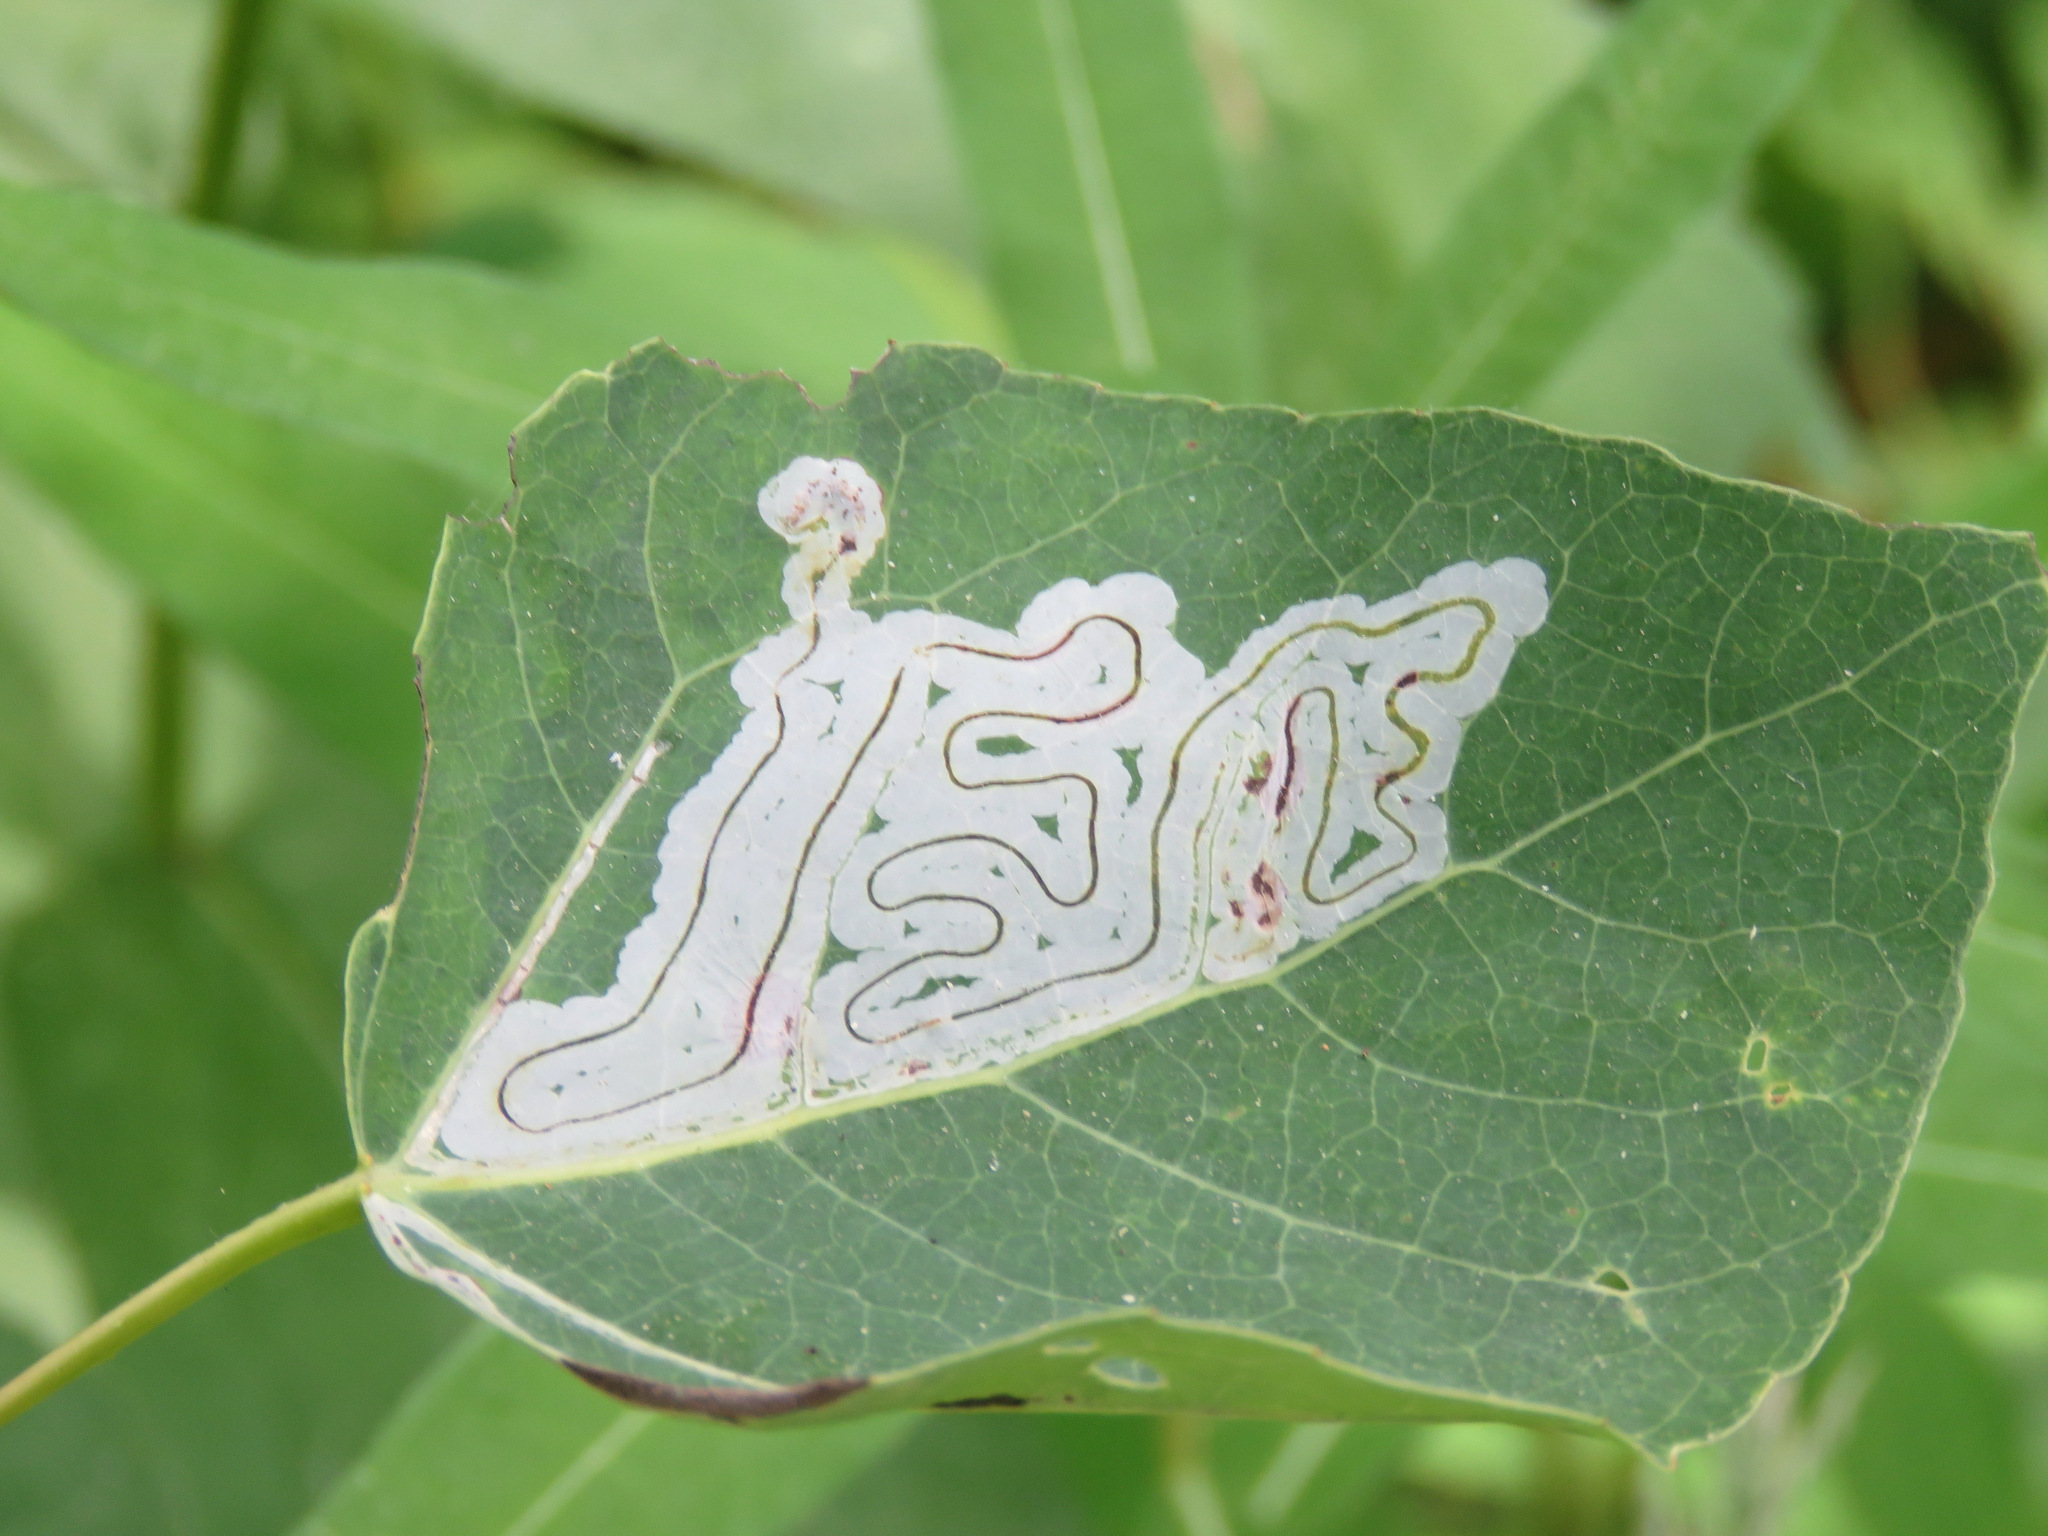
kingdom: Animalia
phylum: Arthropoda
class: Insecta
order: Lepidoptera
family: Gracillariidae
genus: Phyllocnistis
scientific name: Phyllocnistis populiella
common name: Aspen serpentine leafminer moth
